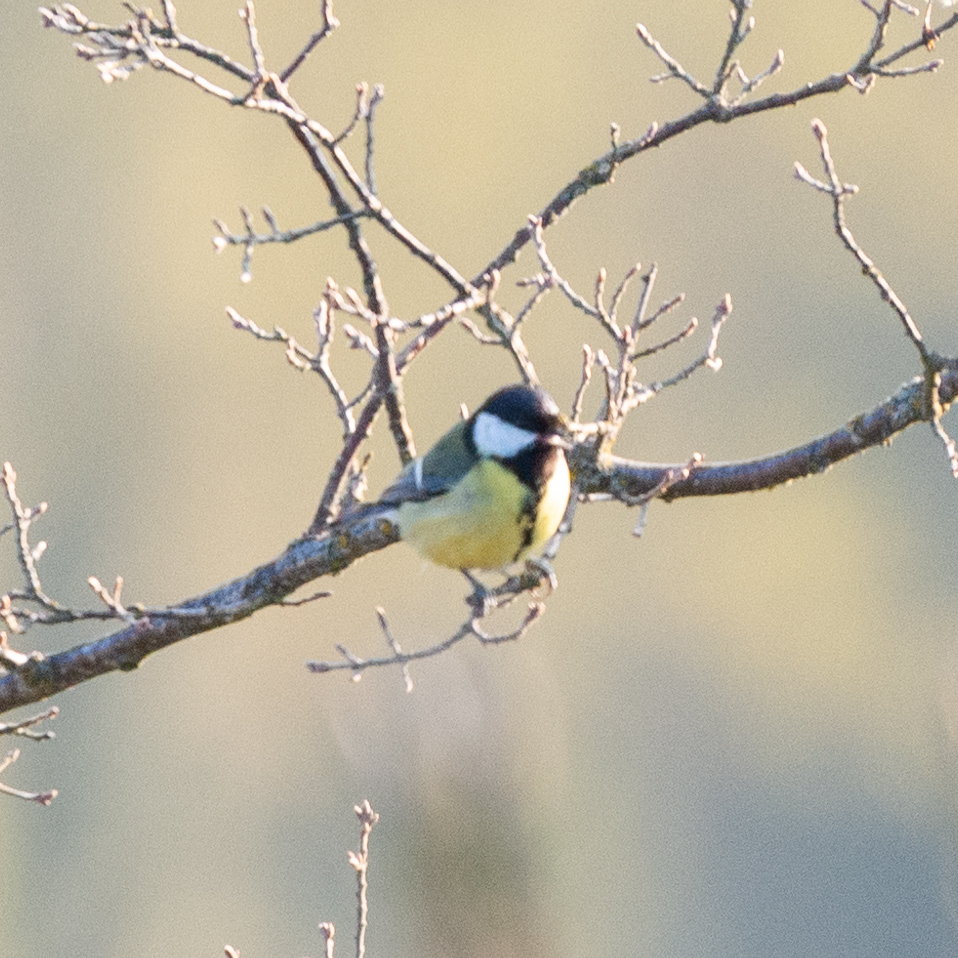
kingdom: Animalia
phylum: Chordata
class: Aves
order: Passeriformes
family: Paridae
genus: Parus
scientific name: Parus major
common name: Great tit
